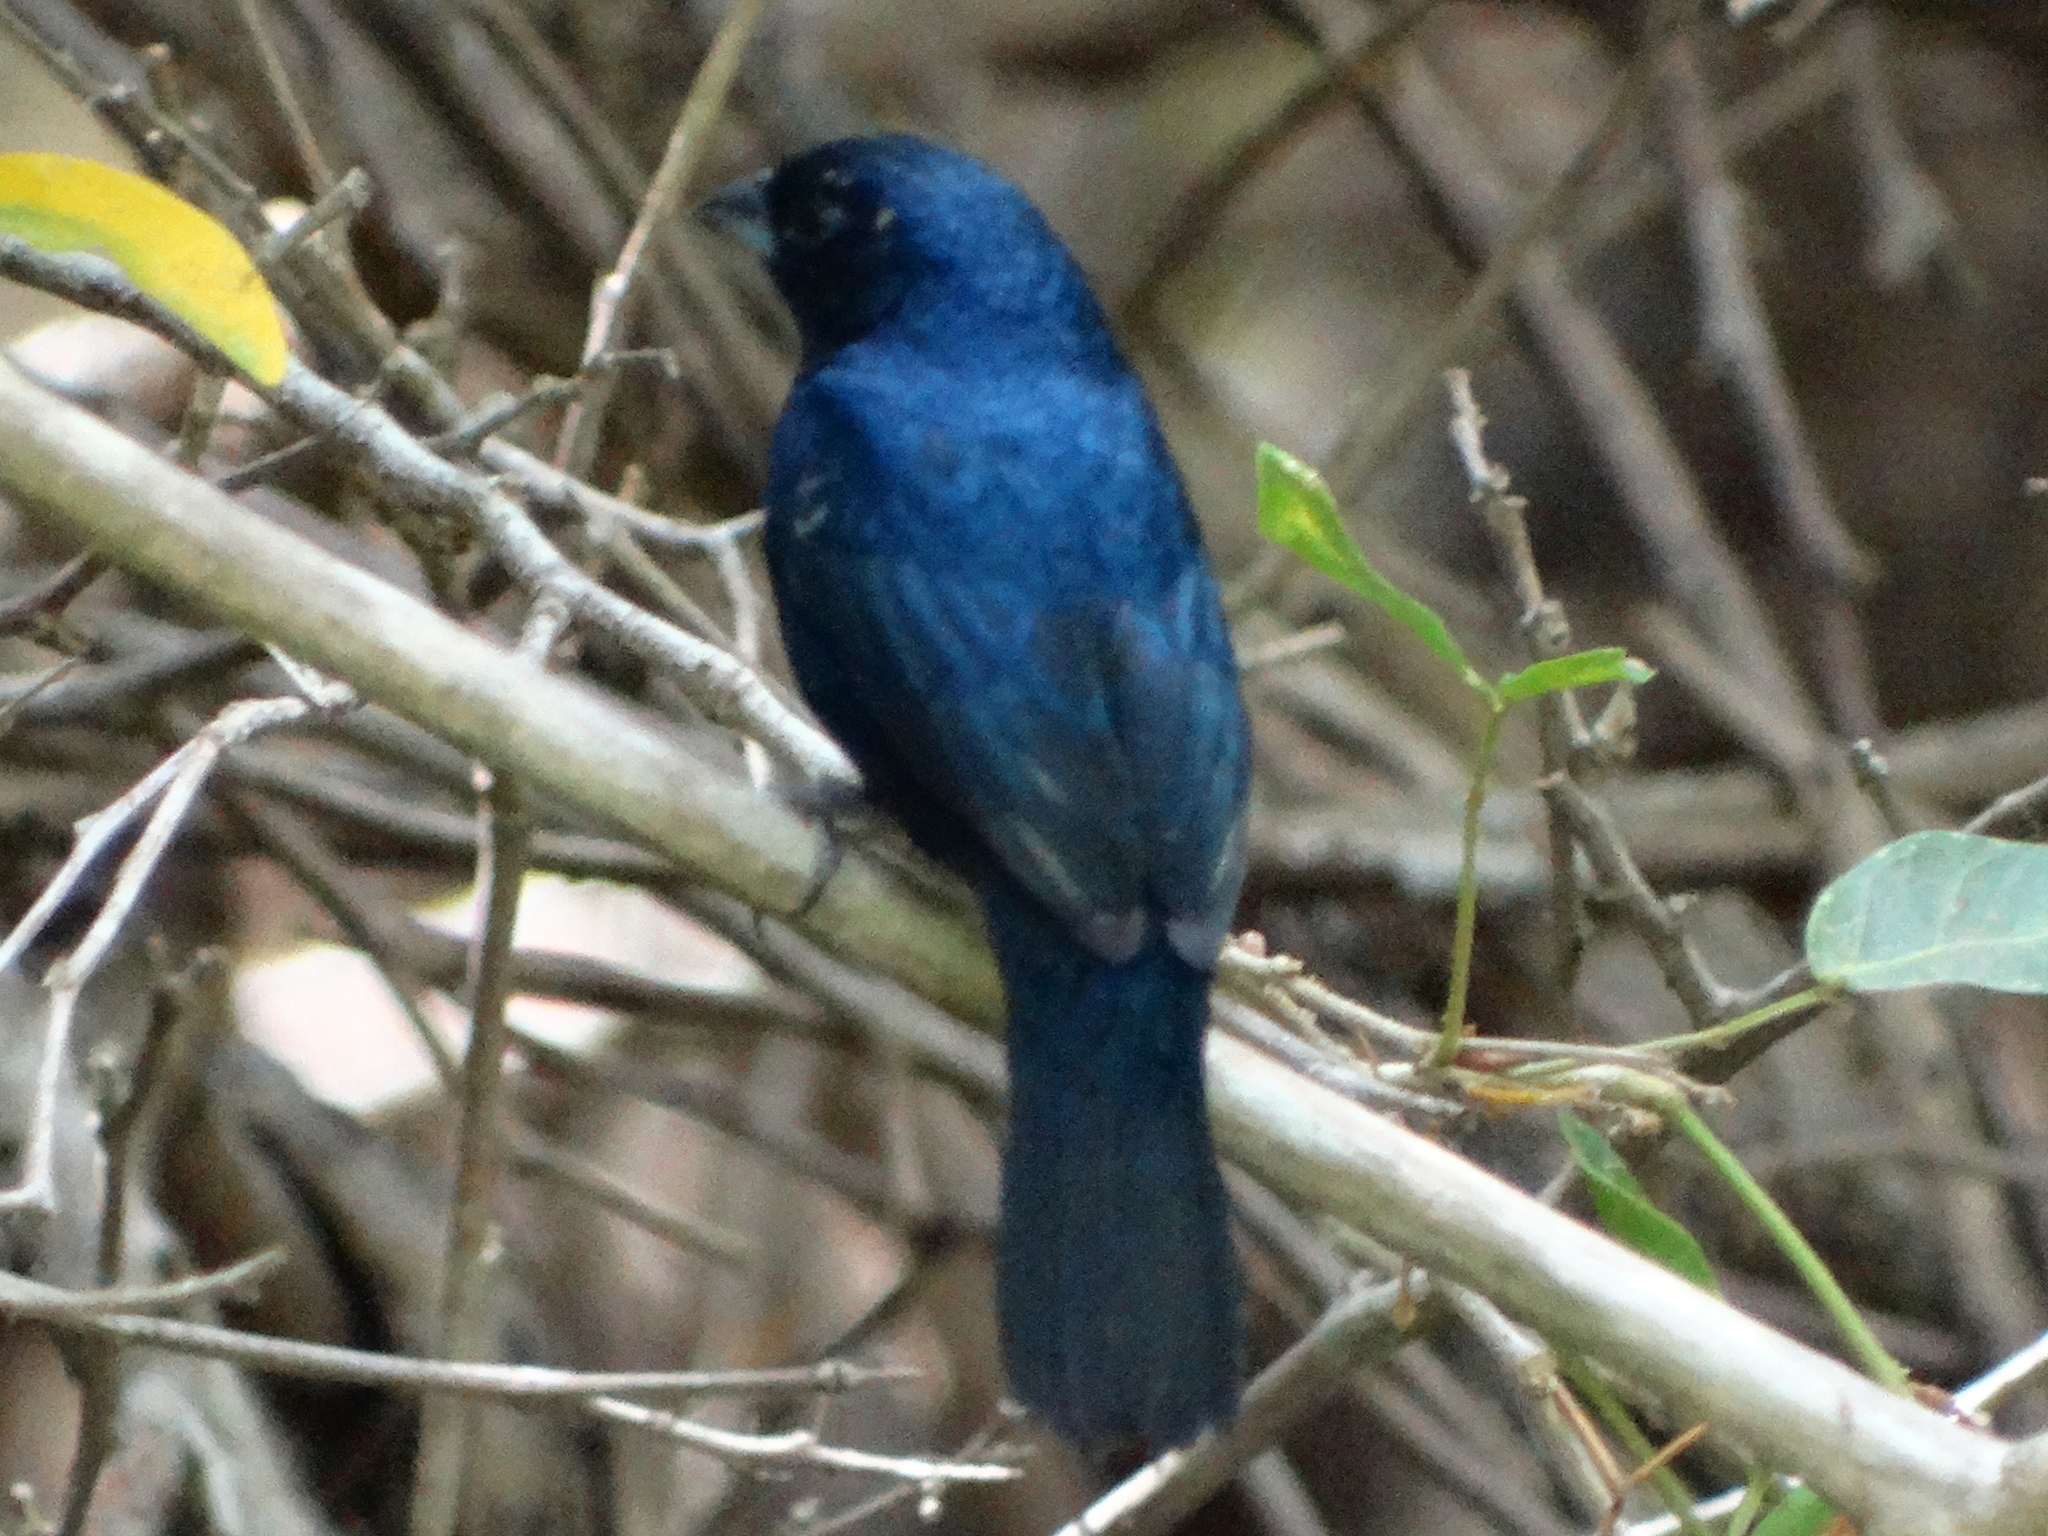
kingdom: Animalia
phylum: Chordata
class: Aves
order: Passeriformes
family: Thraupidae
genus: Volatinia
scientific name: Volatinia jacarina
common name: Blue-black grassquit
